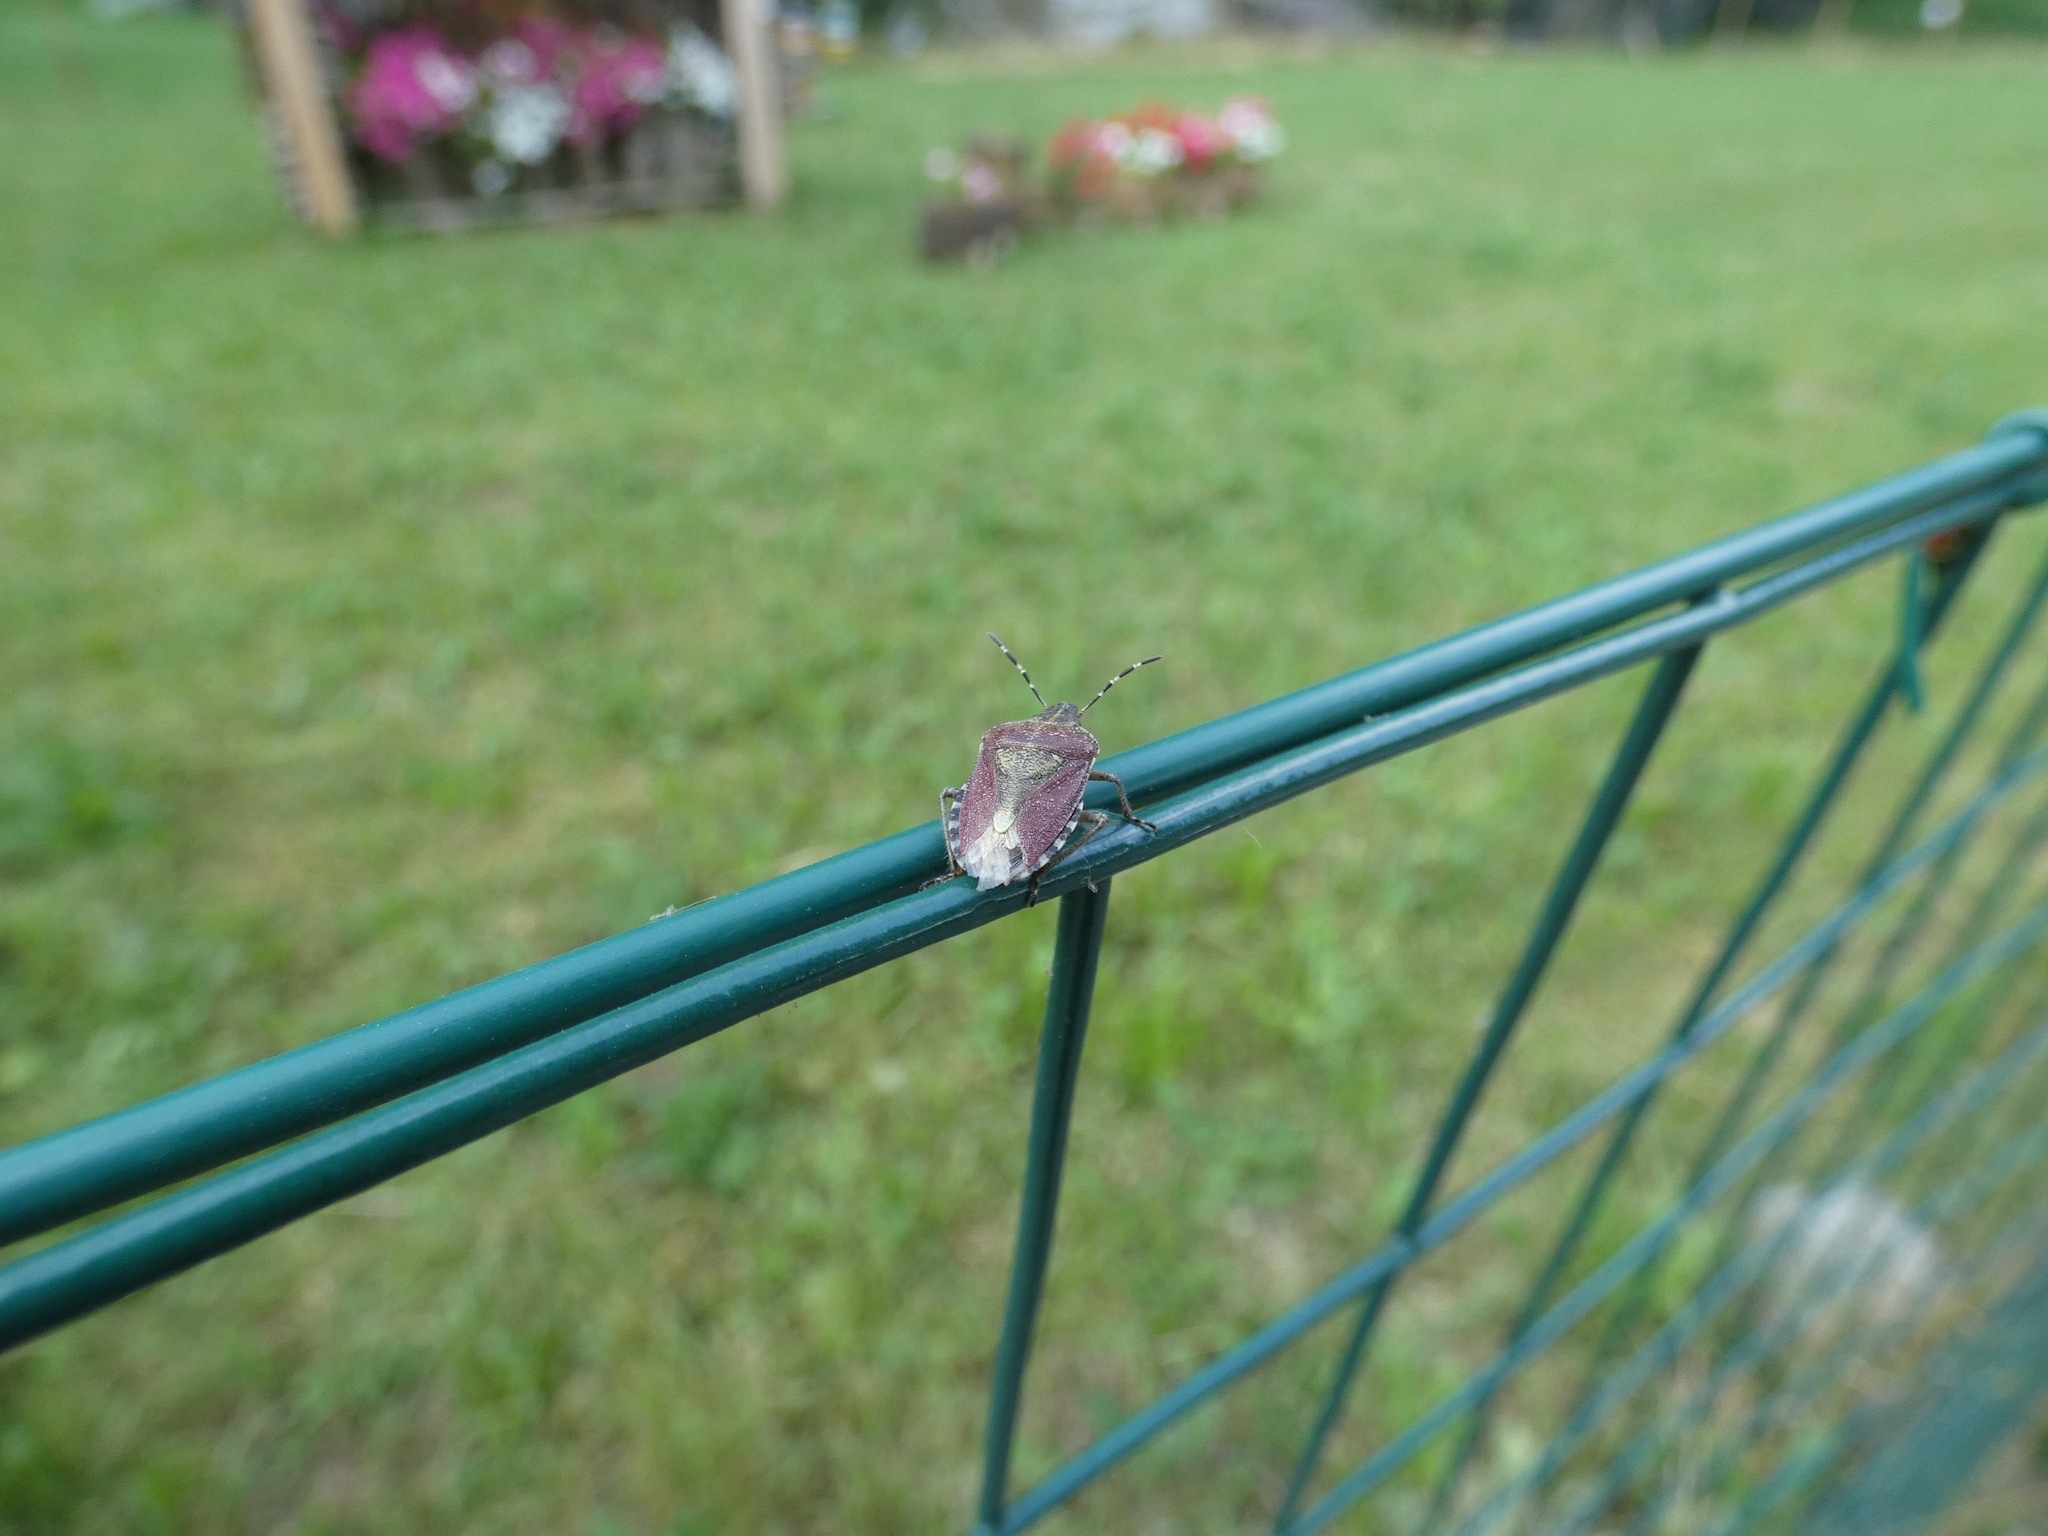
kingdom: Animalia
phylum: Arthropoda
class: Insecta
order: Hemiptera
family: Pentatomidae
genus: Dolycoris
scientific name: Dolycoris baccarum
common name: Sloe bug
